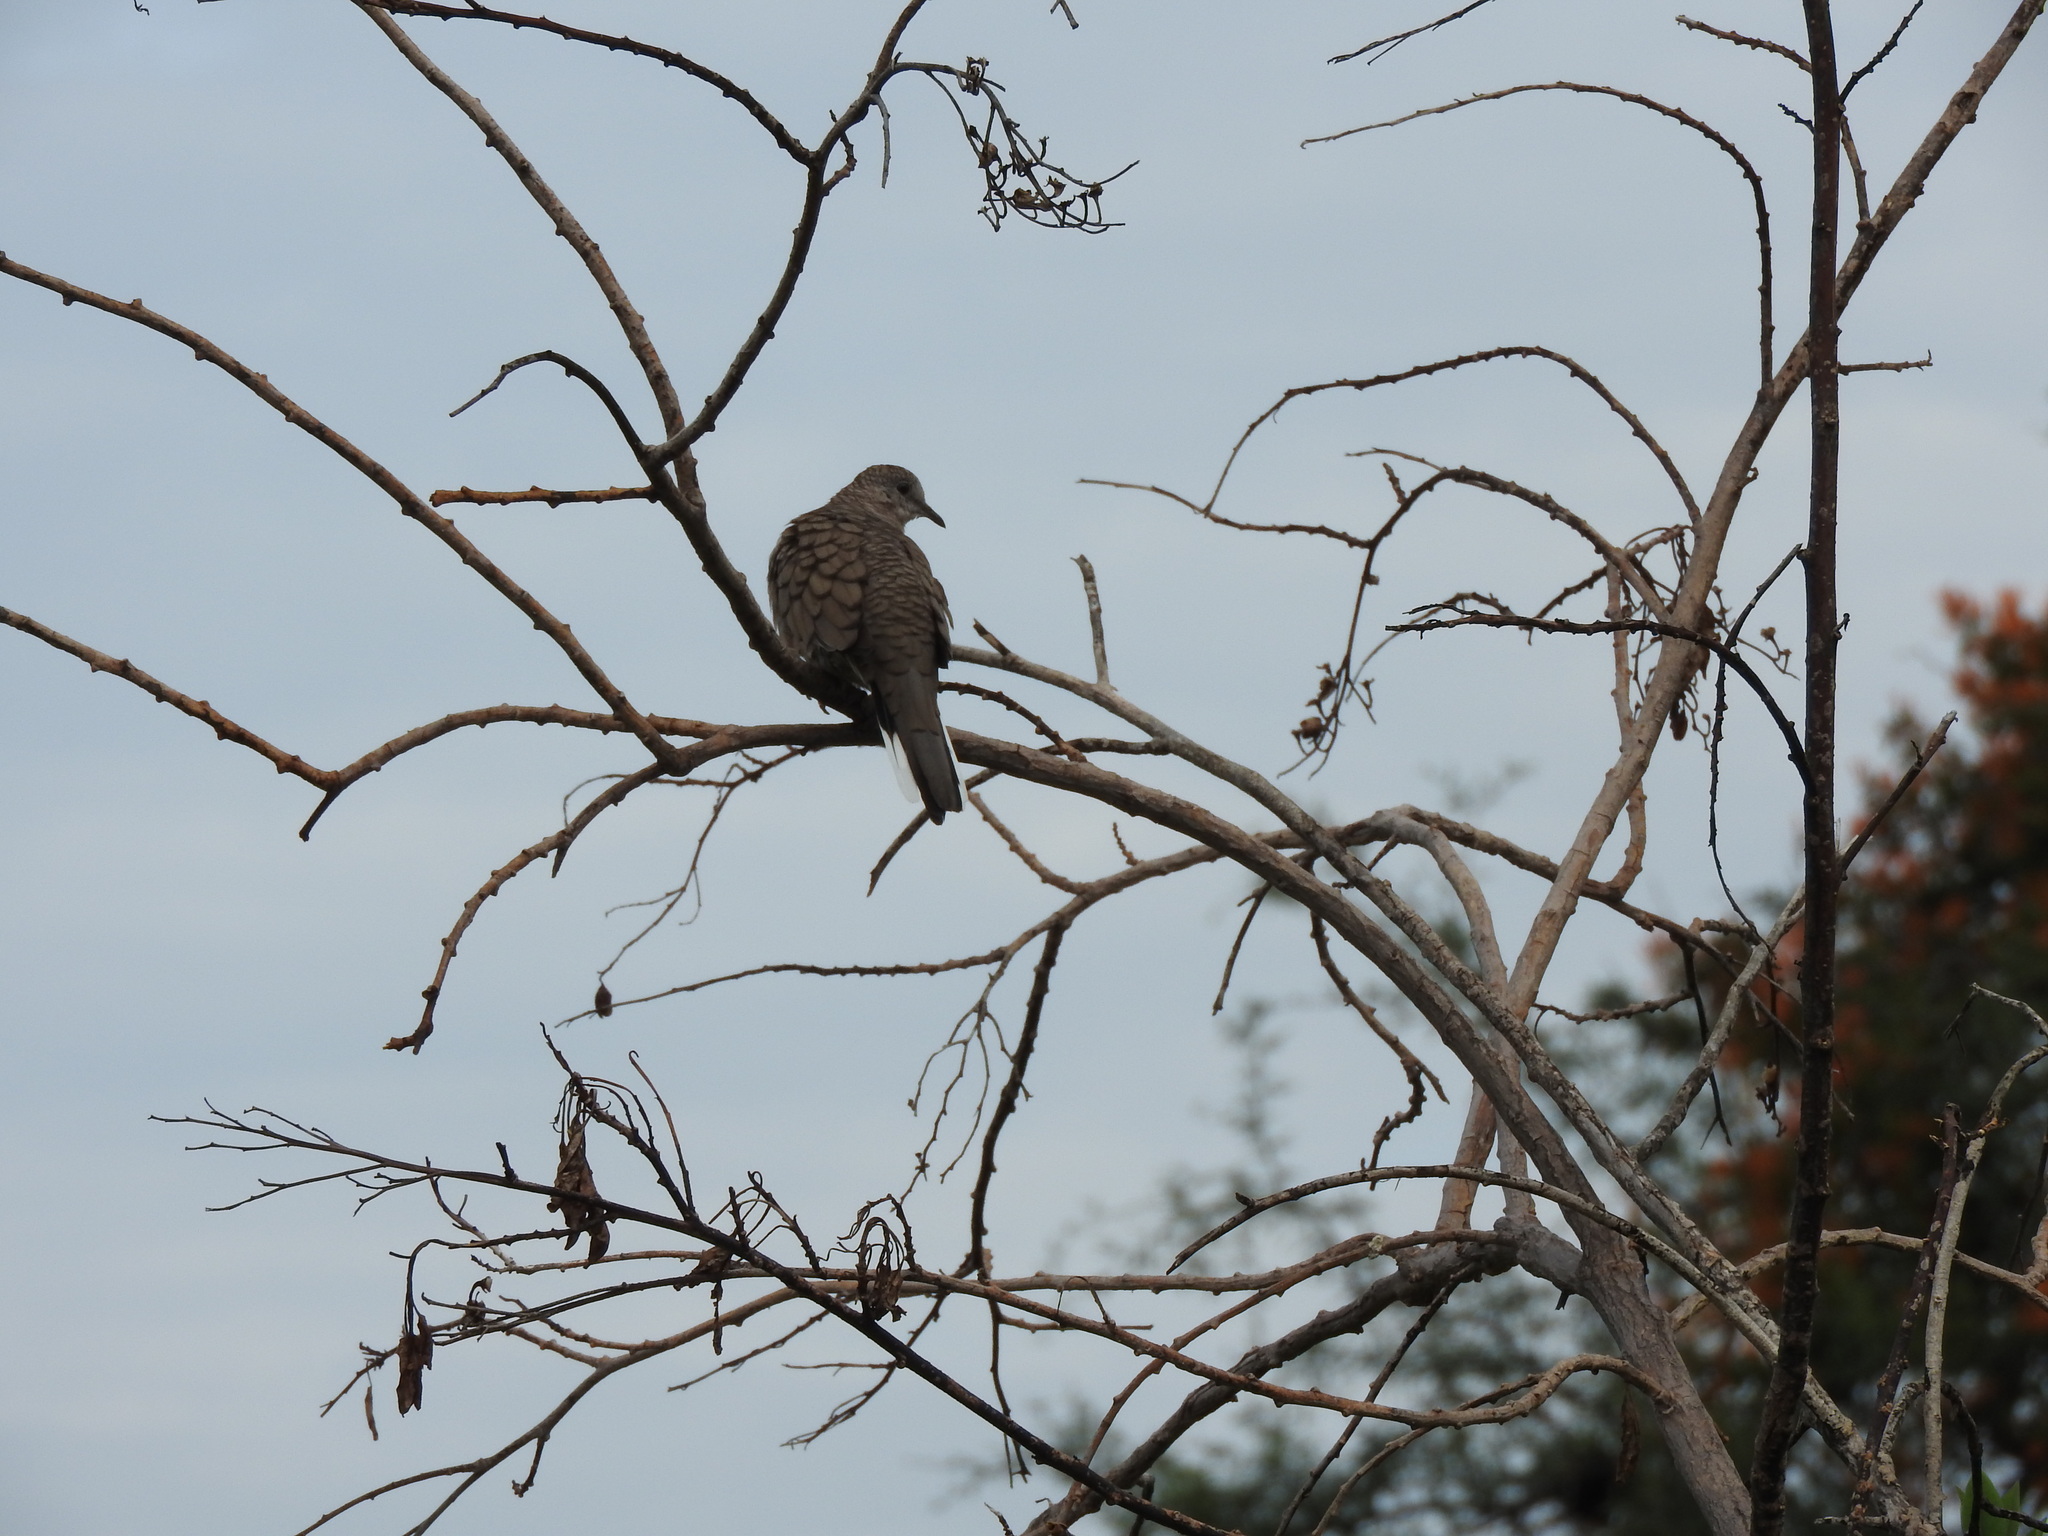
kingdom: Animalia
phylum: Chordata
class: Aves
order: Columbiformes
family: Columbidae
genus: Columbina
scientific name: Columbina inca
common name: Inca dove
